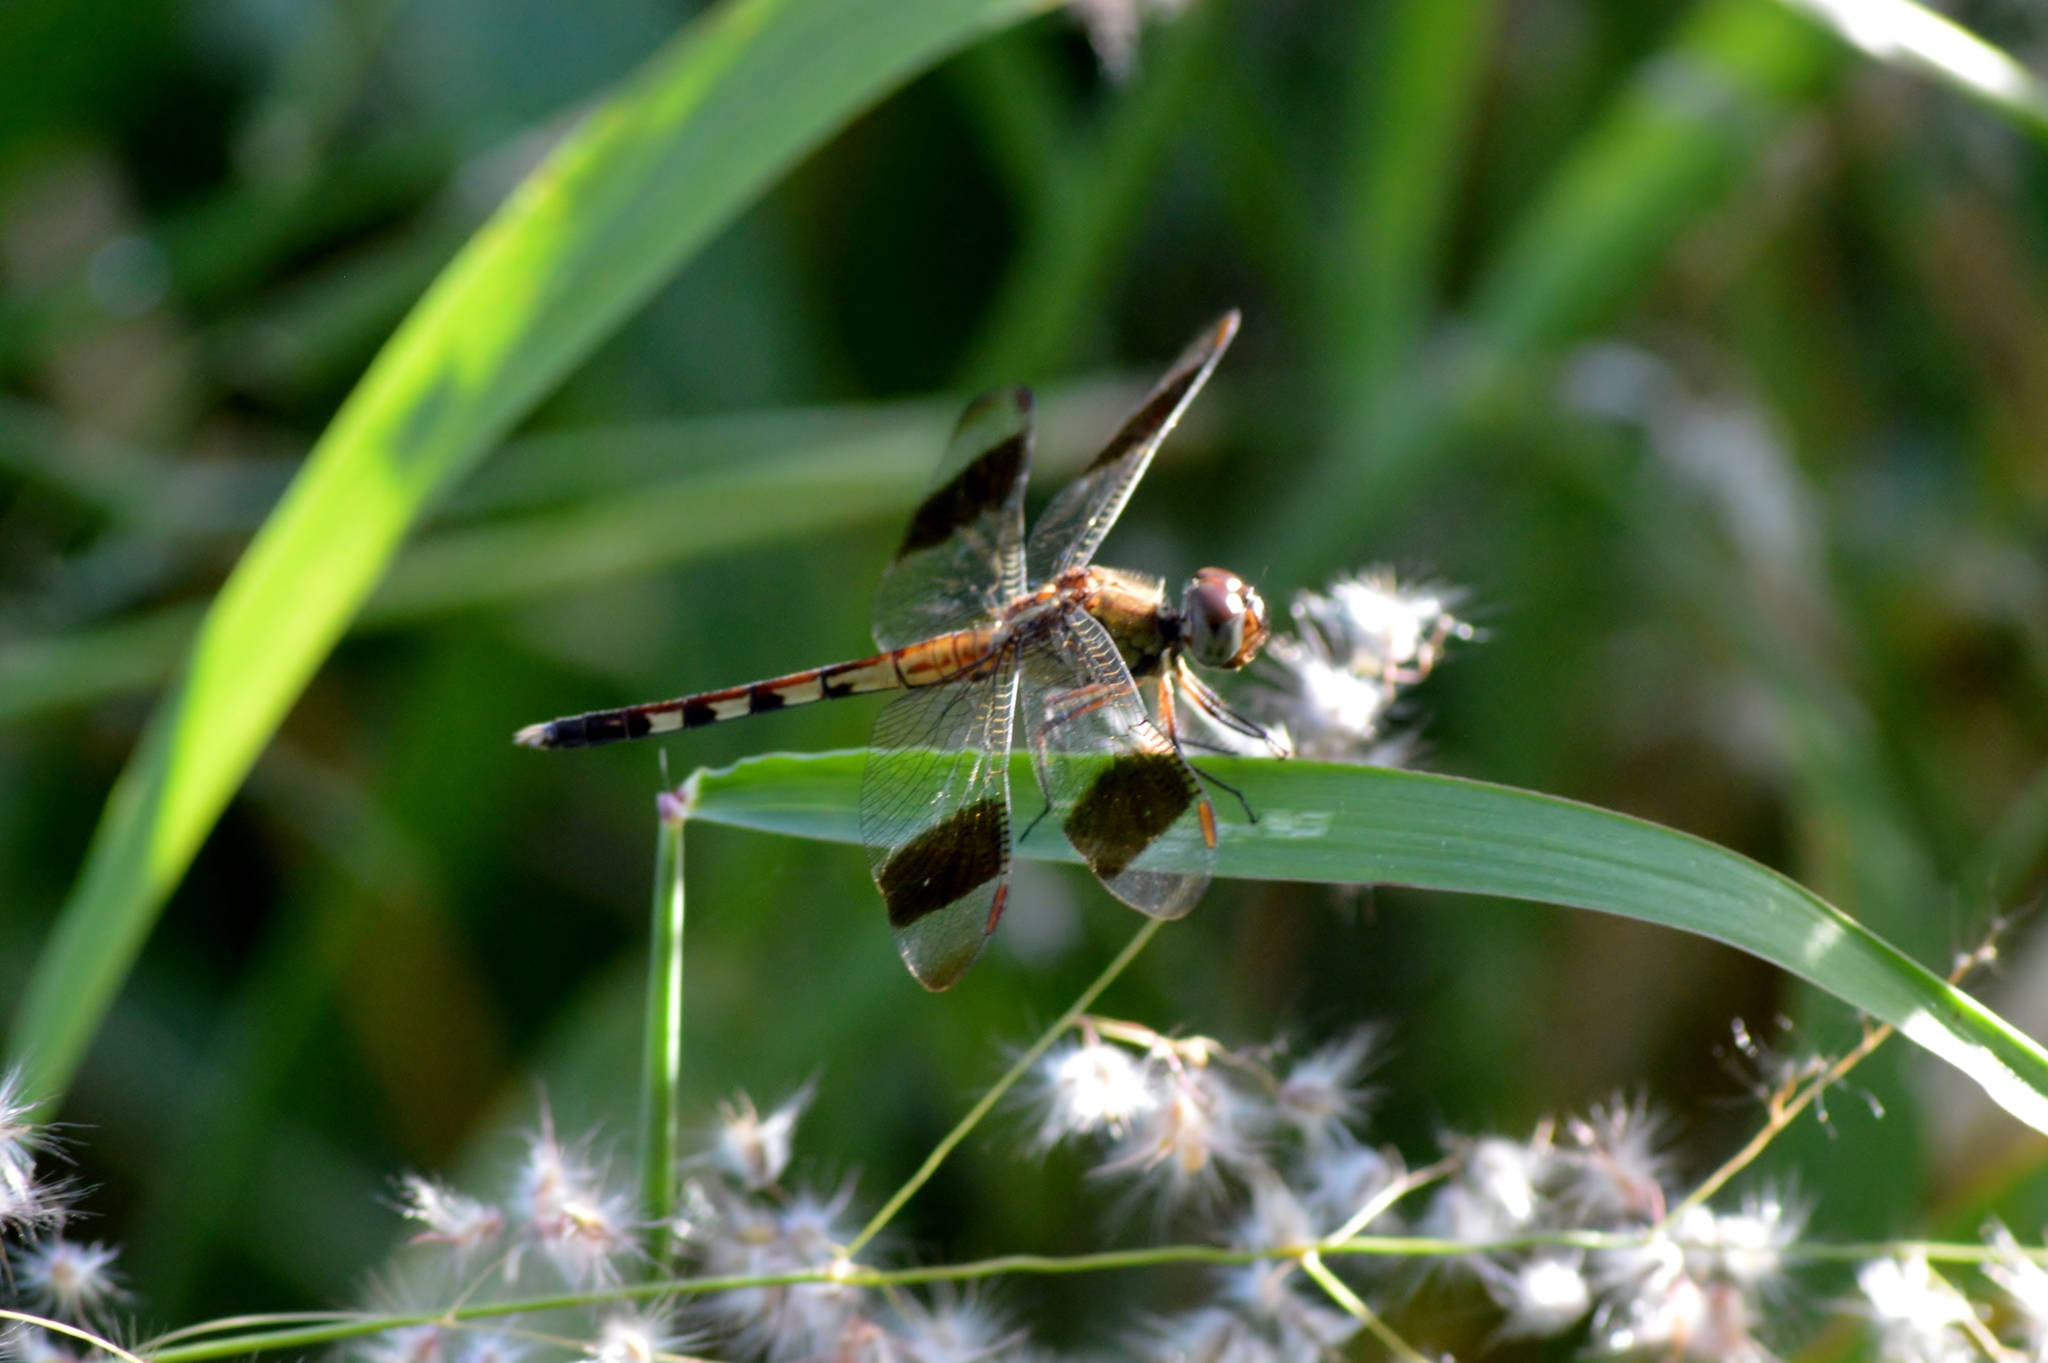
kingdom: Animalia
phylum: Arthropoda
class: Insecta
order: Odonata
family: Libellulidae
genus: Erythrodiplax
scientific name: Erythrodiplax umbrata
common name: Band-winged dragonlet
